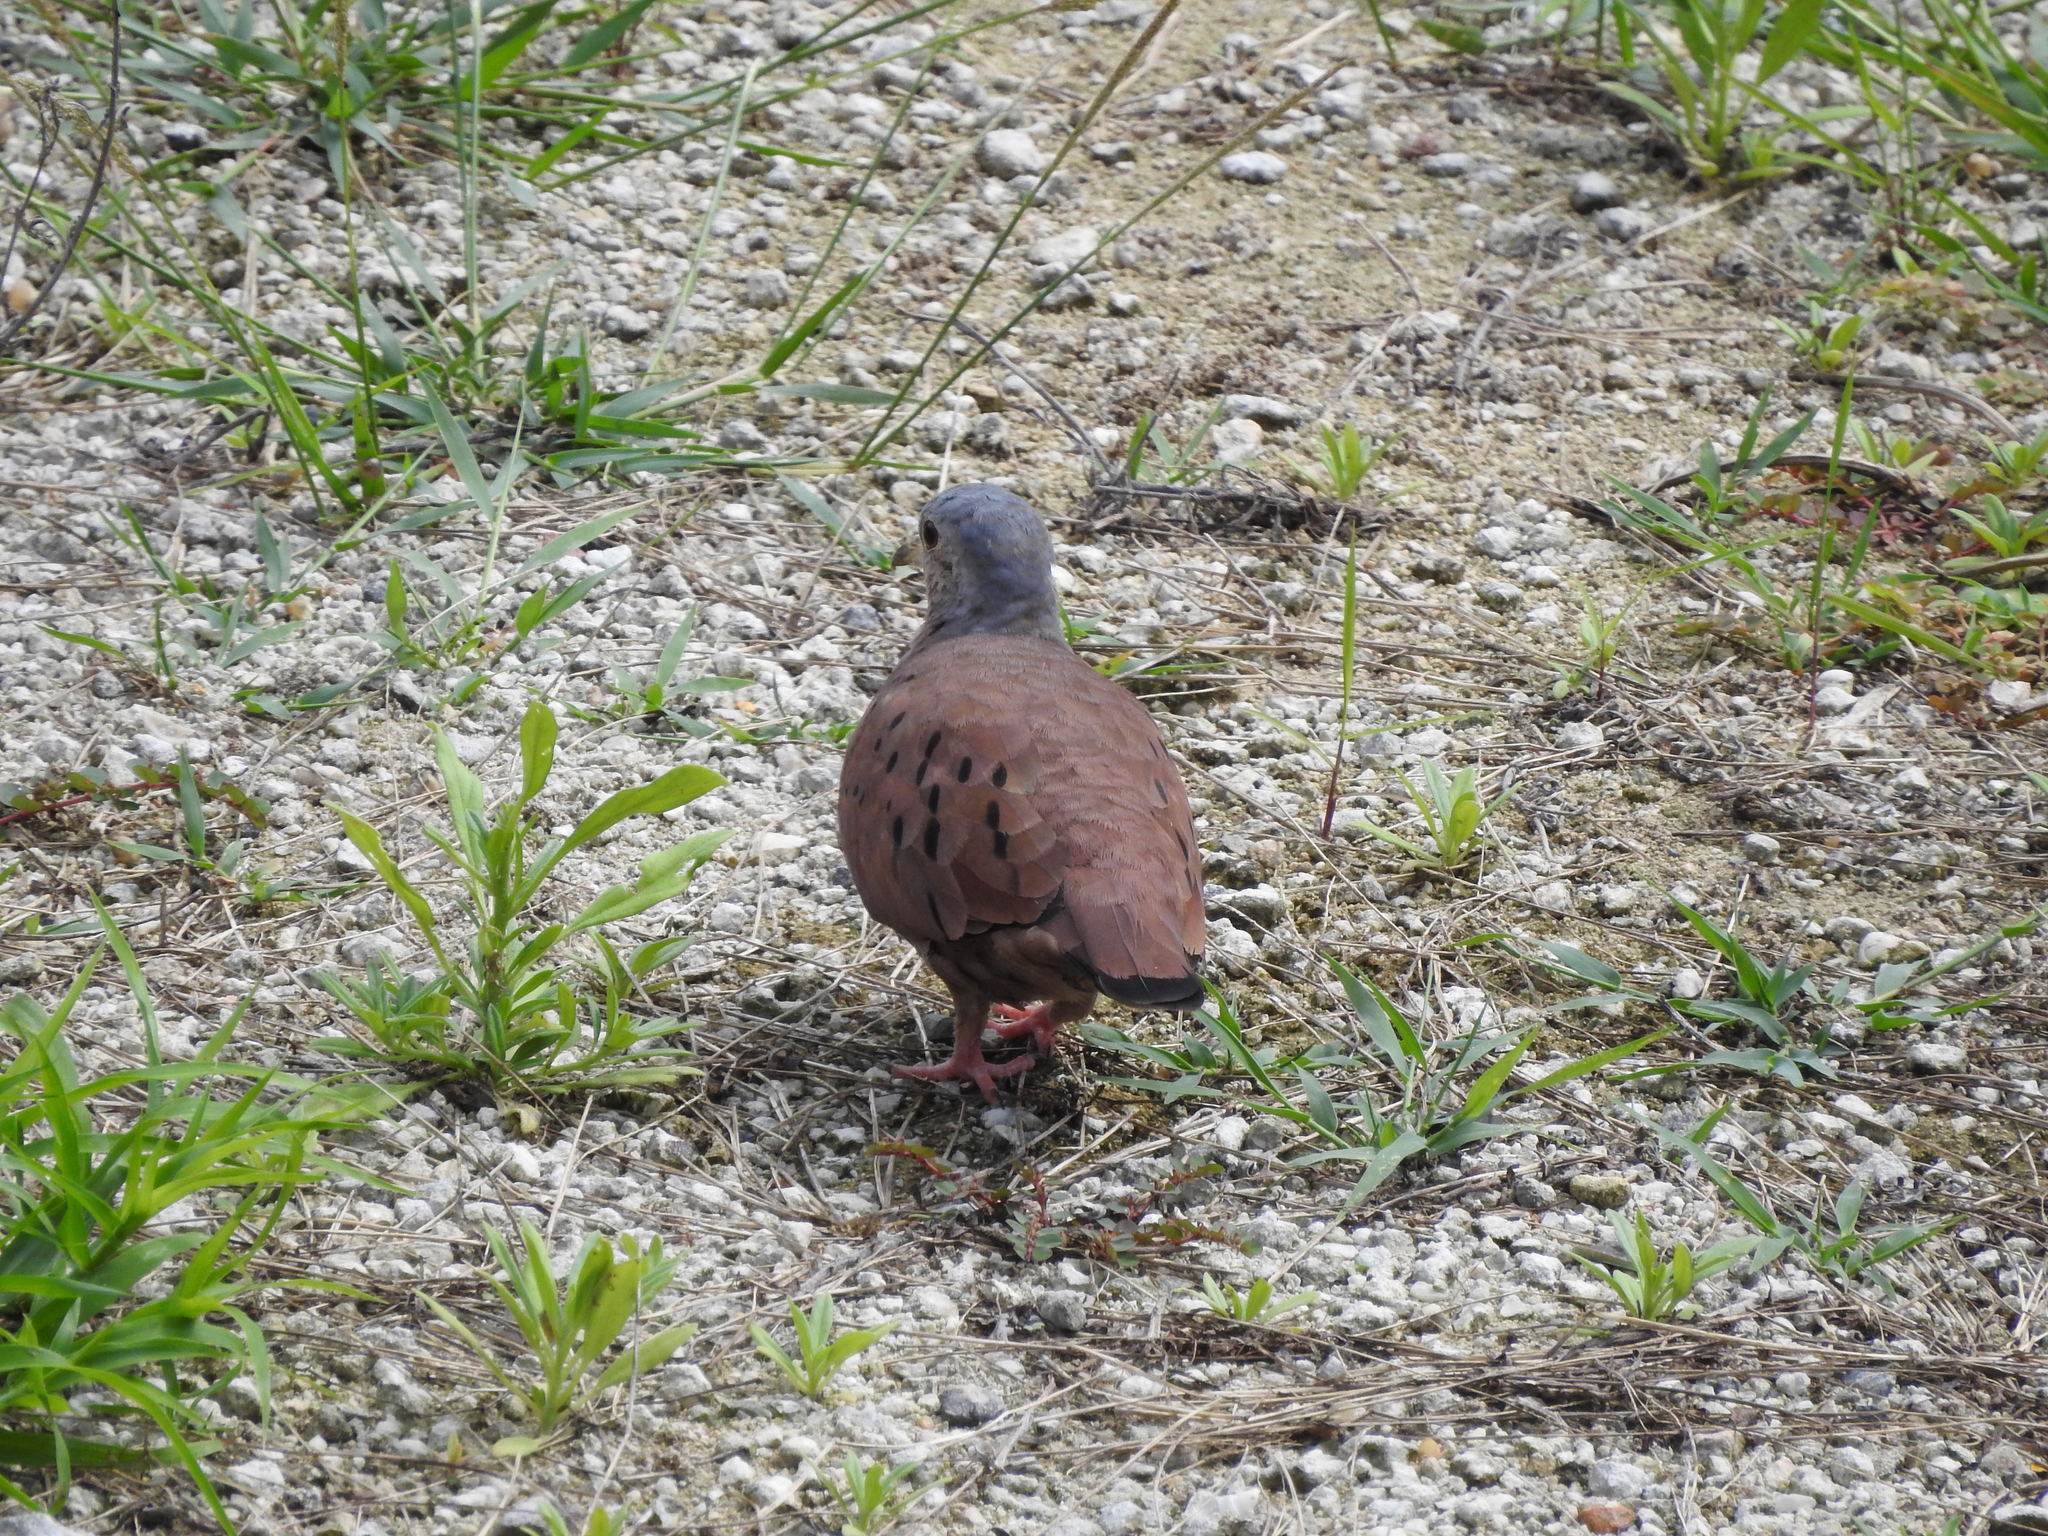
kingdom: Animalia
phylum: Chordata
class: Aves
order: Columbiformes
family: Columbidae
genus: Columbina
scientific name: Columbina talpacoti
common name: Ruddy ground dove
